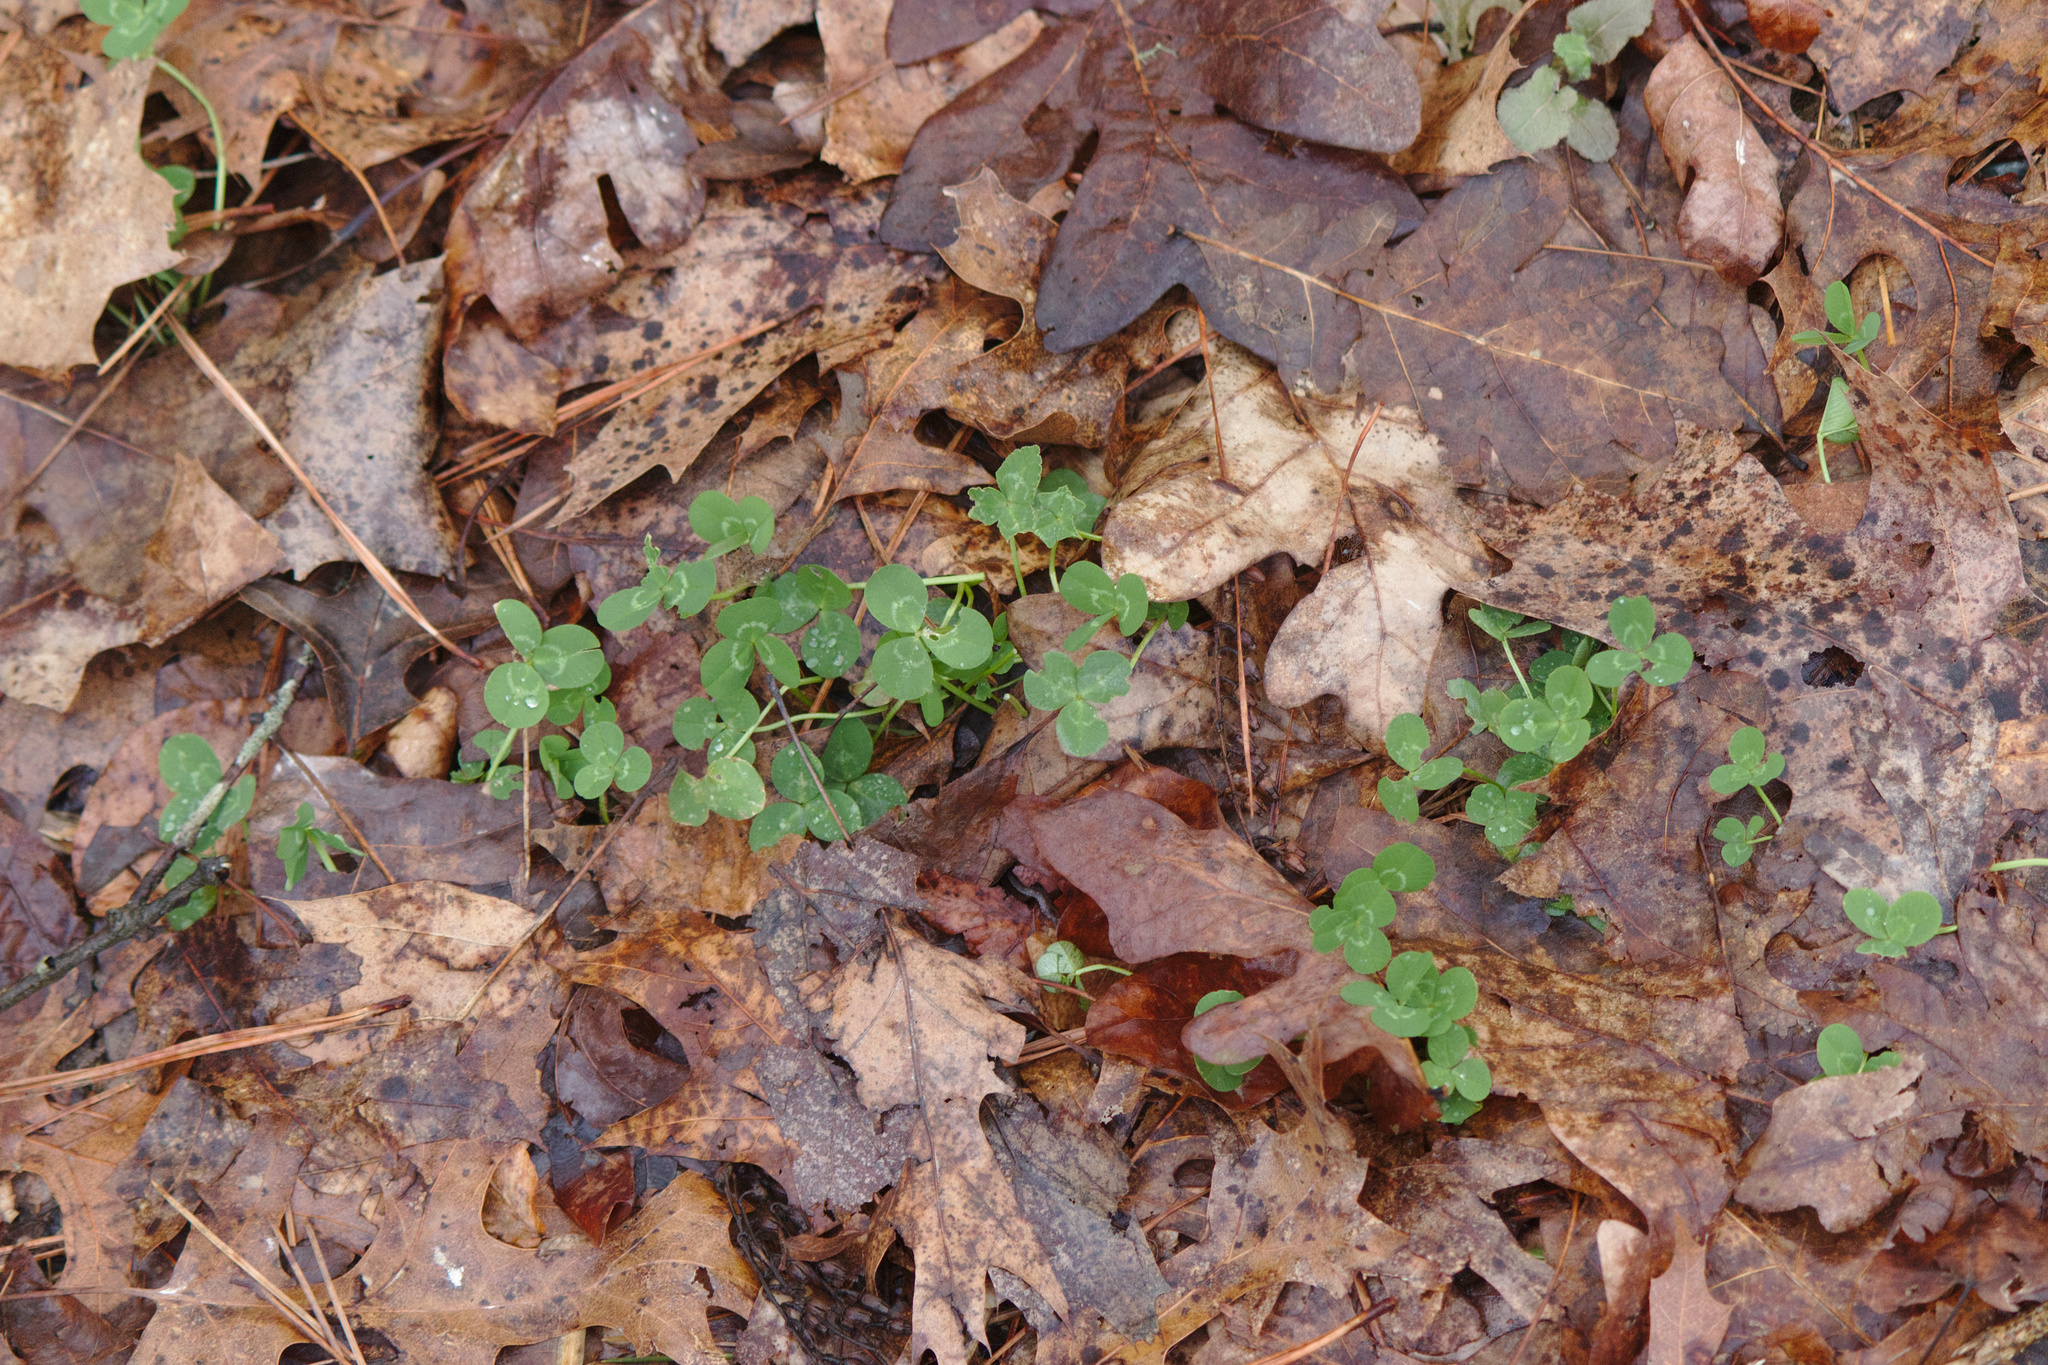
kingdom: Plantae
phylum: Tracheophyta
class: Magnoliopsida
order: Fabales
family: Fabaceae
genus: Trifolium
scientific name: Trifolium repens
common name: White clover
